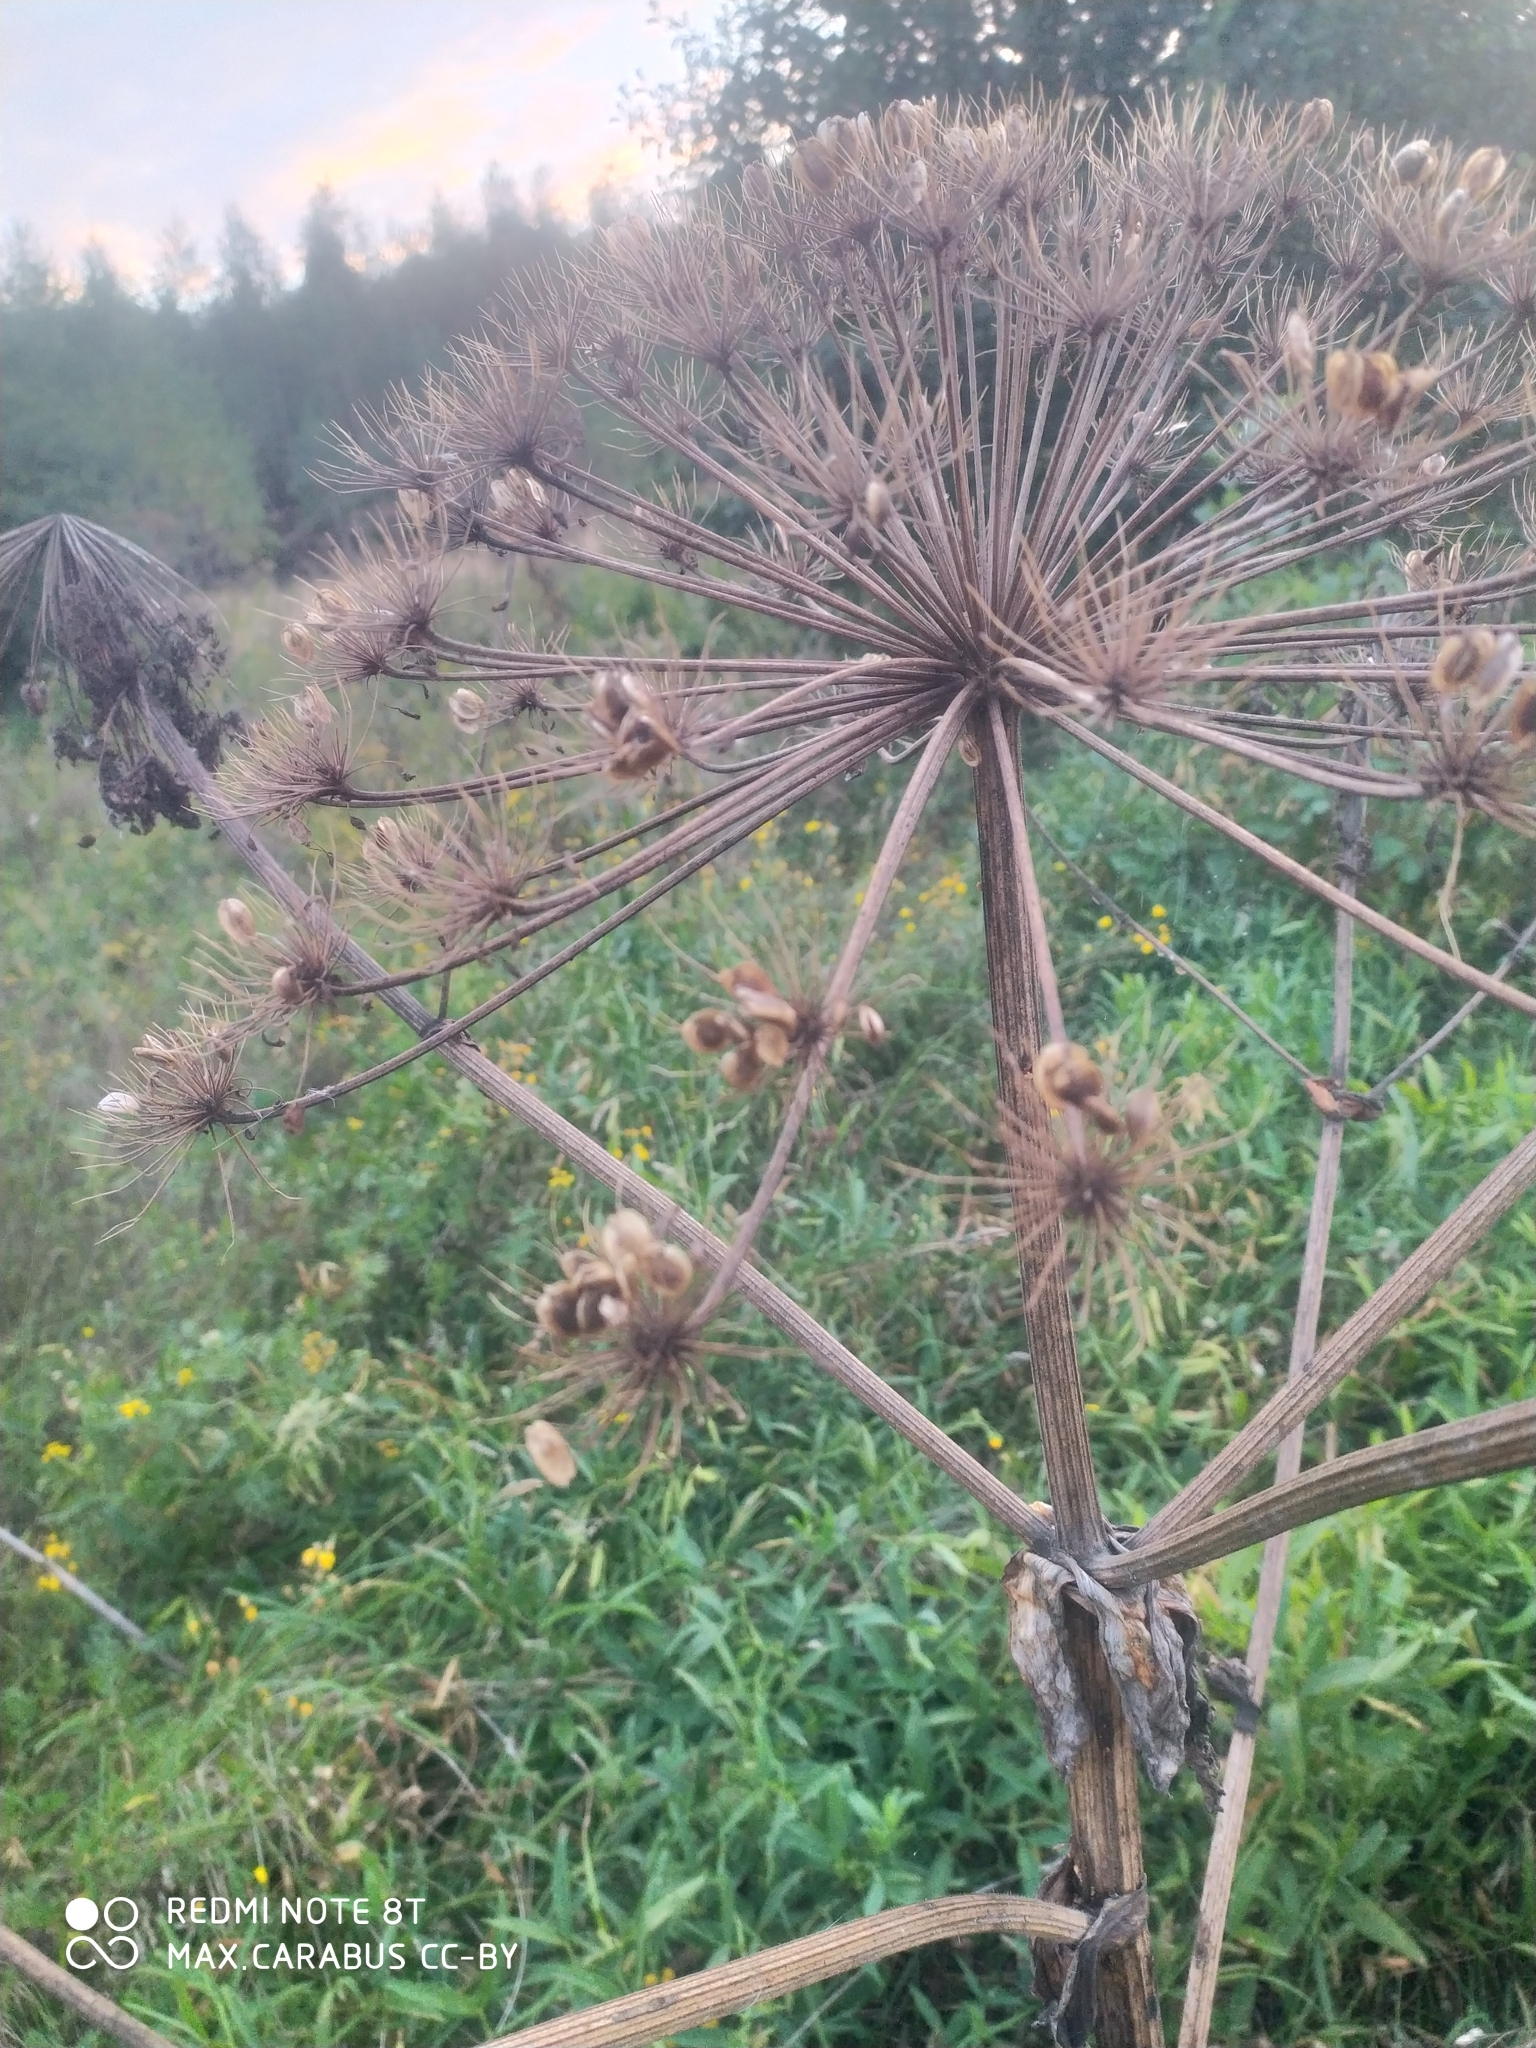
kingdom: Plantae
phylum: Tracheophyta
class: Magnoliopsida
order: Apiales
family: Apiaceae
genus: Heracleum
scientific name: Heracleum sosnowskyi
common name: Sosnowsky's hogweed
